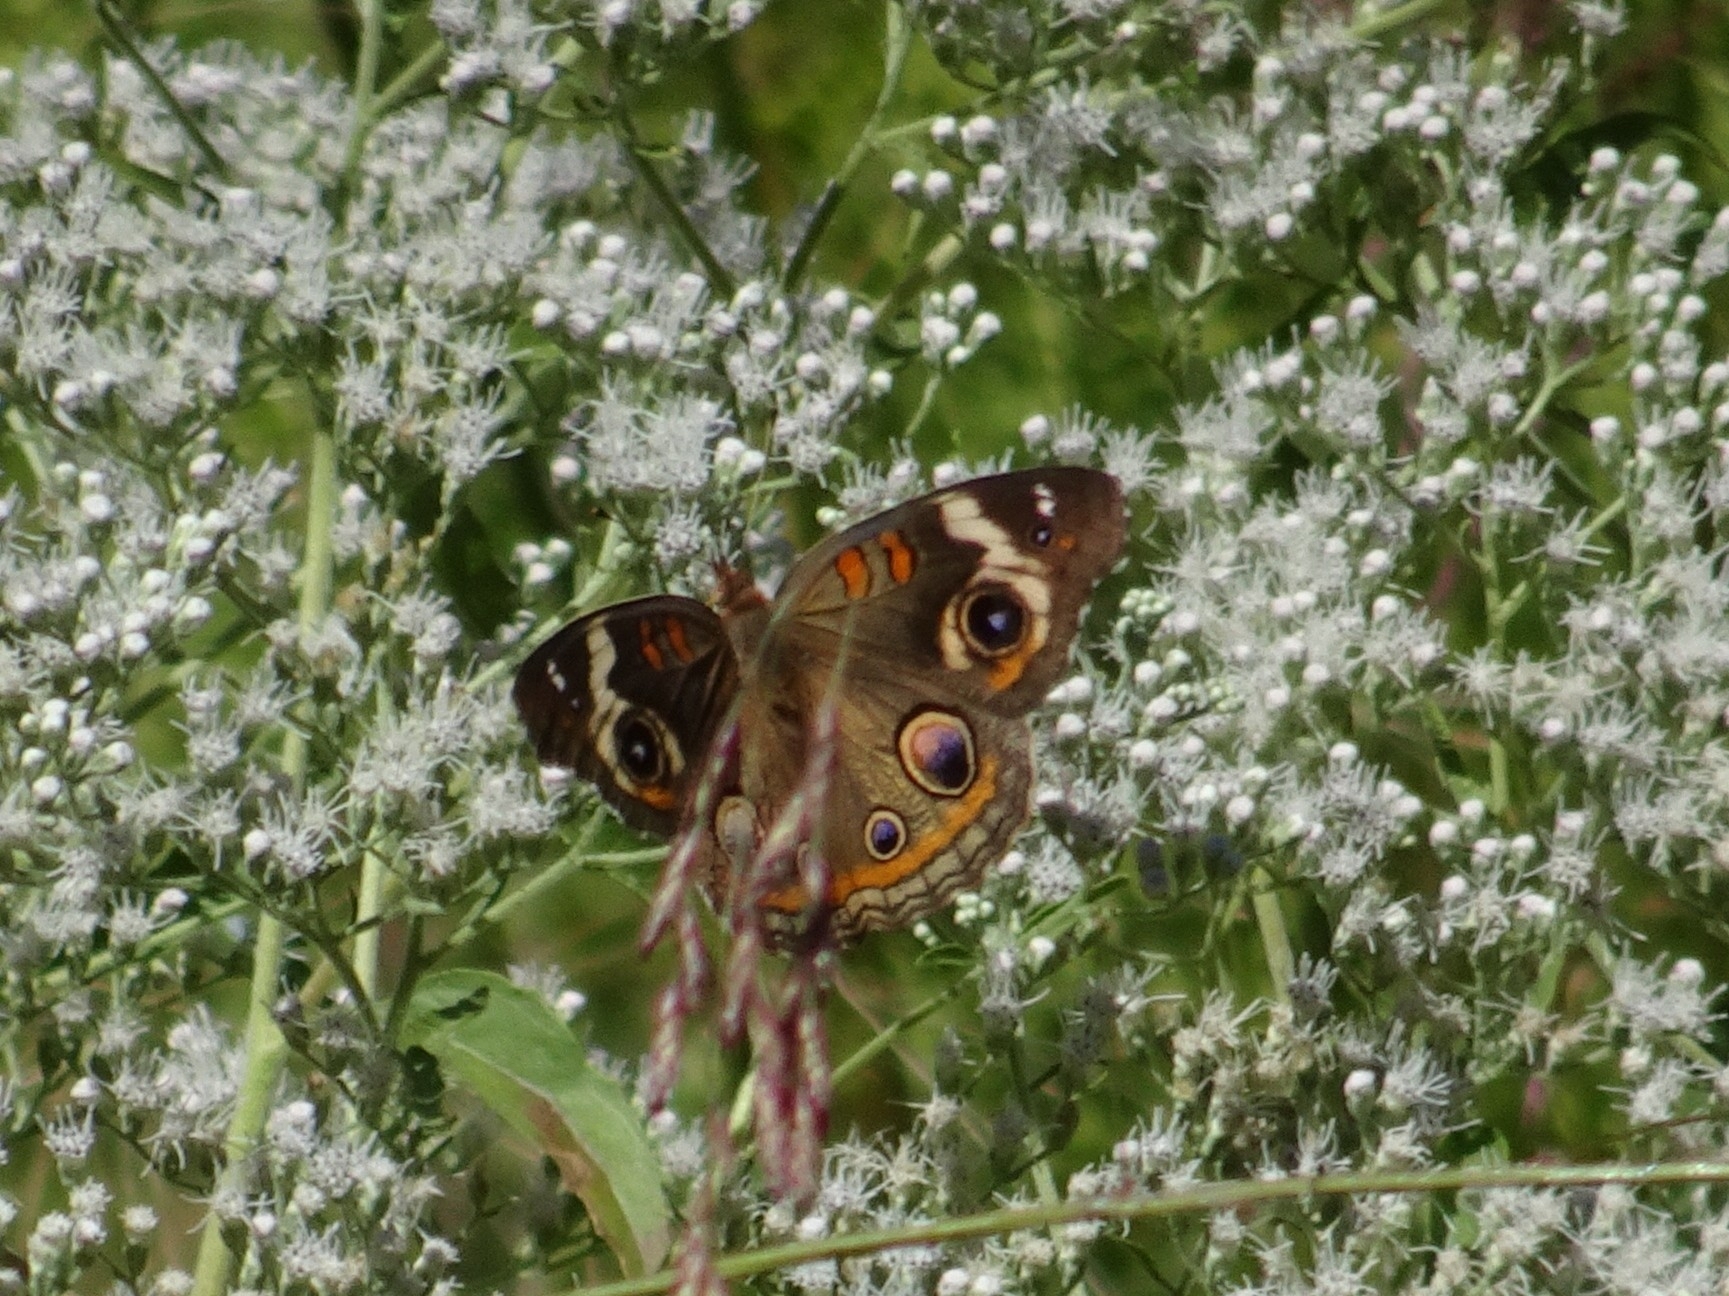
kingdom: Animalia
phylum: Arthropoda
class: Insecta
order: Lepidoptera
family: Nymphalidae
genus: Junonia
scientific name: Junonia coenia
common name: Common buckeye
